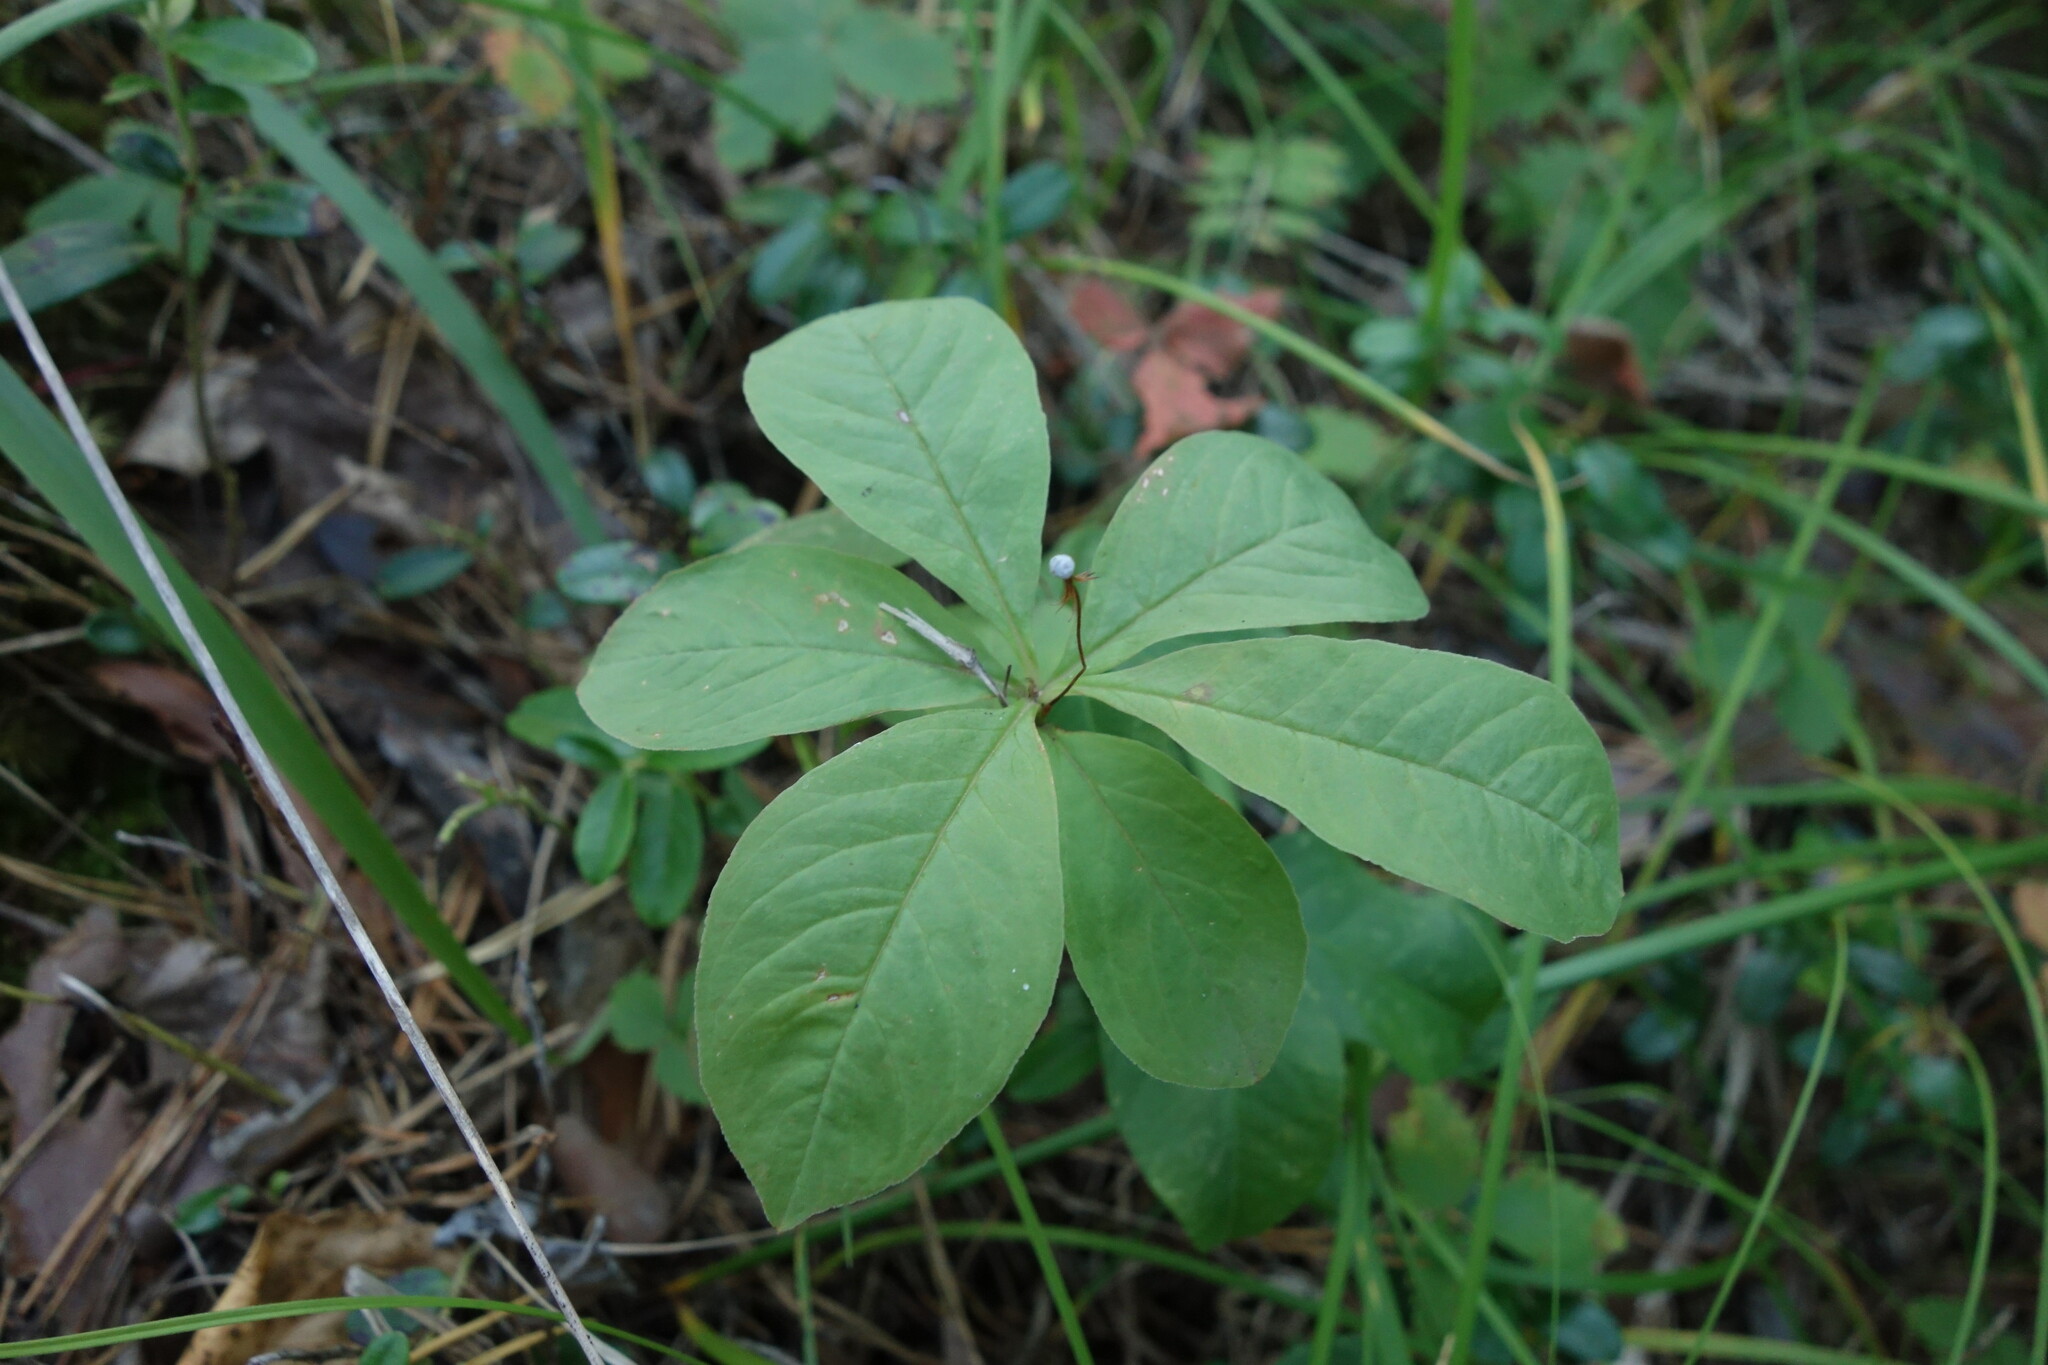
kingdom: Plantae
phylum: Tracheophyta
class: Magnoliopsida
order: Ericales
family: Primulaceae
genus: Lysimachia
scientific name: Lysimachia europaea
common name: Arctic starflower
